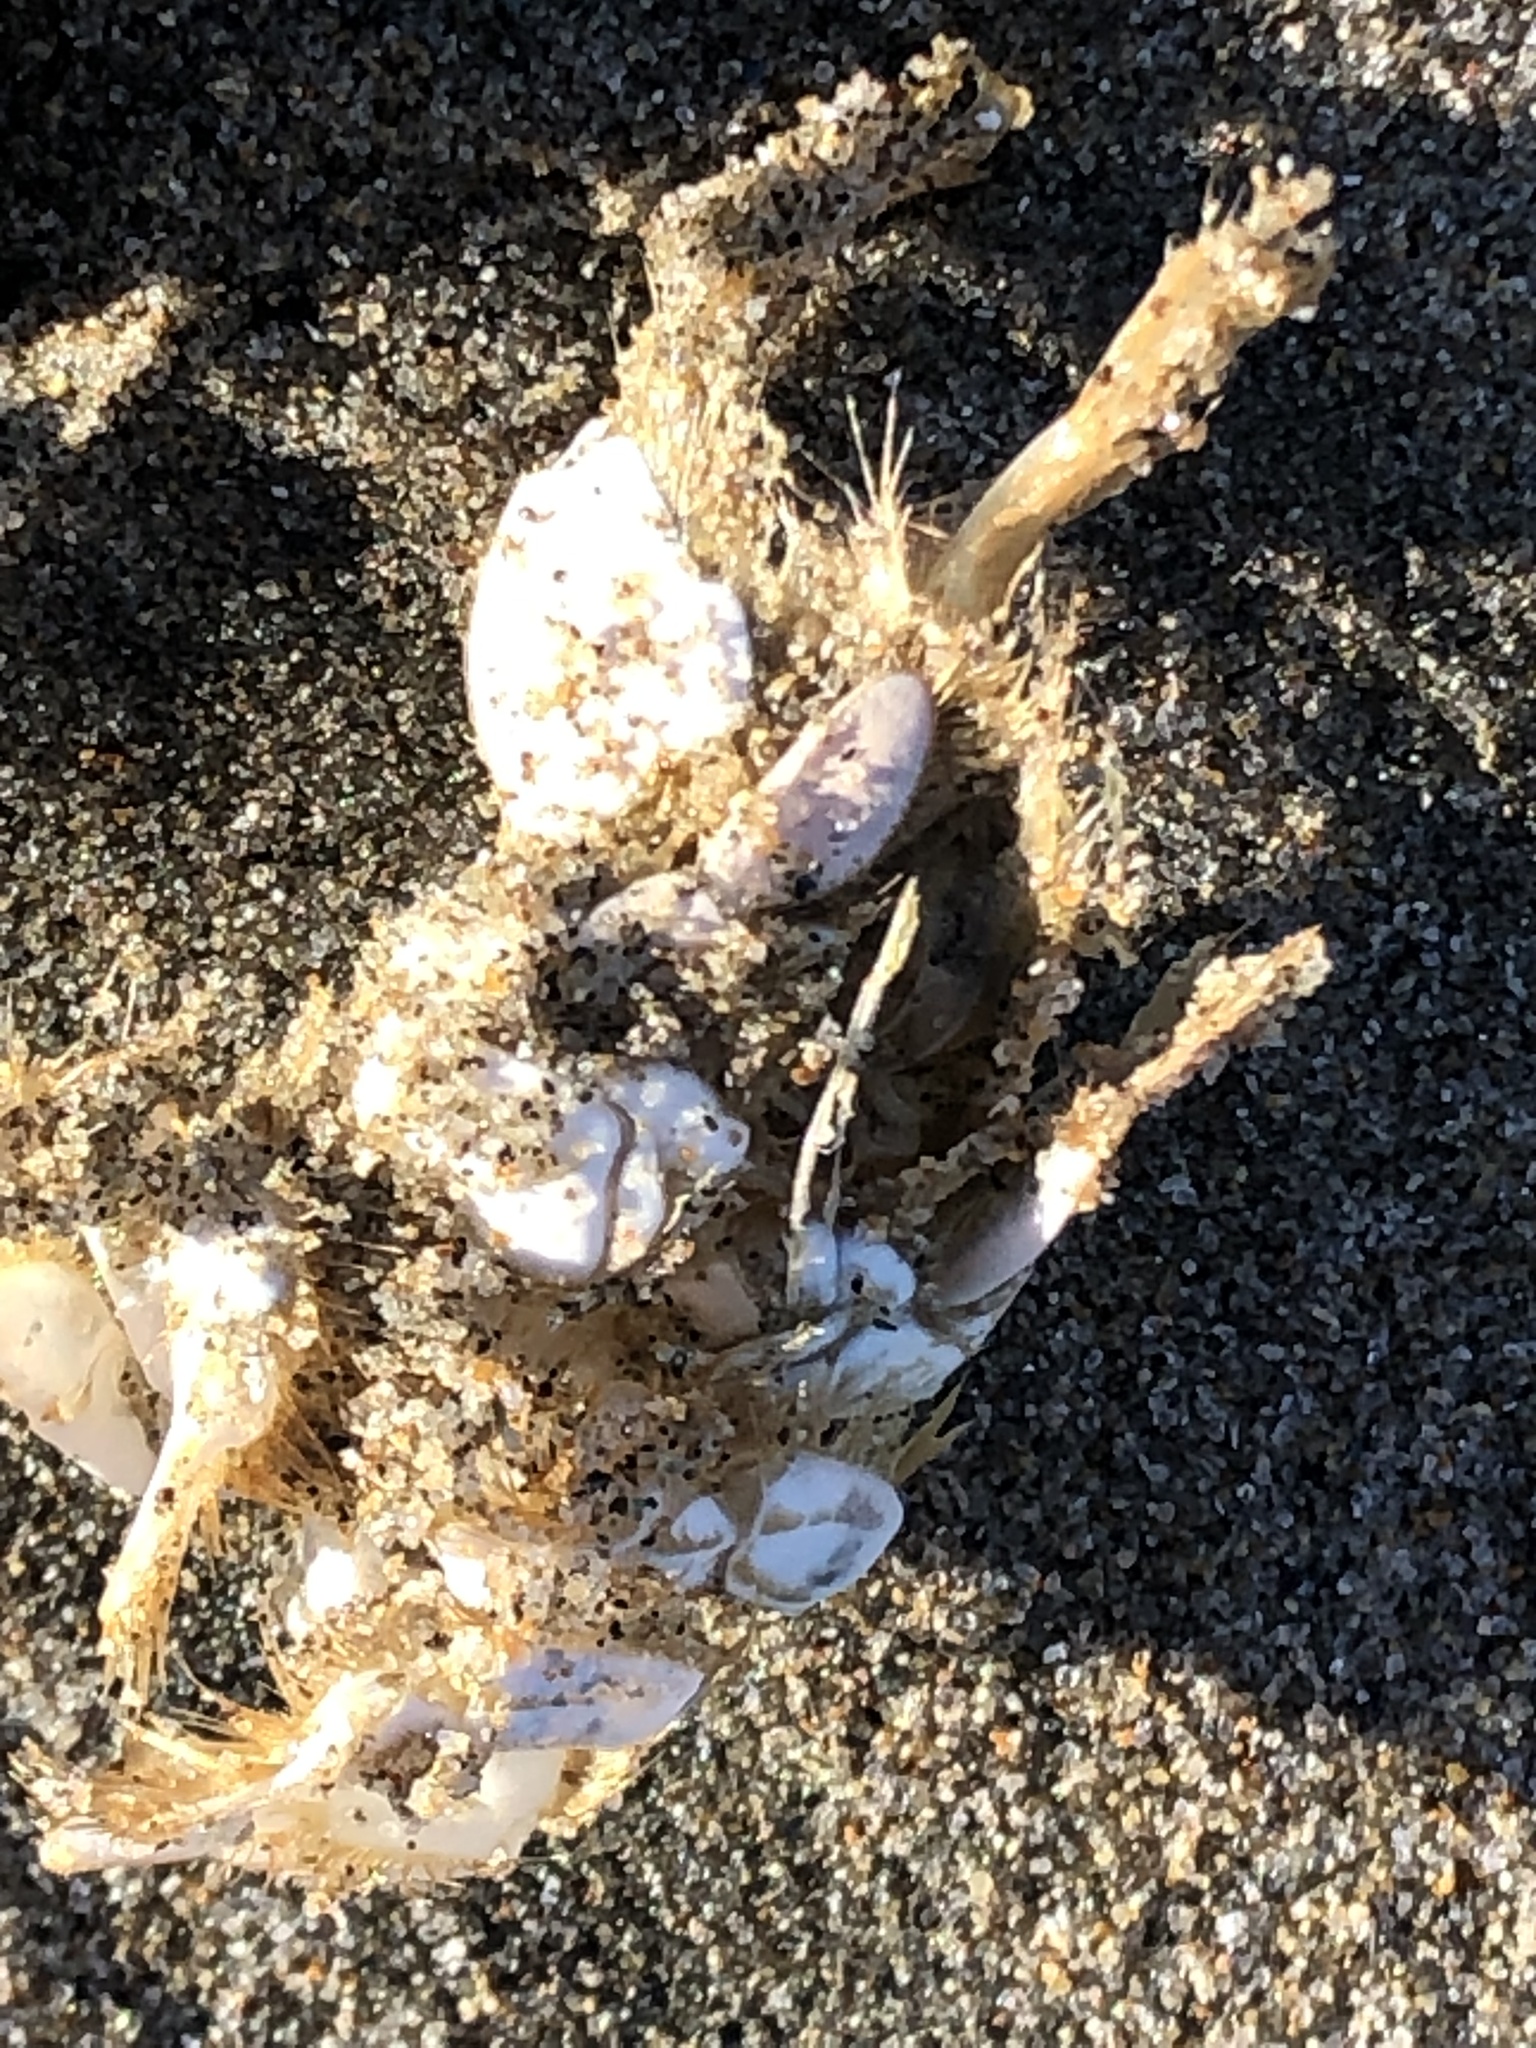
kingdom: Animalia
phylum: Arthropoda
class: Malacostraca
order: Decapoda
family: Hippidae
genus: Emerita
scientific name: Emerita analoga
